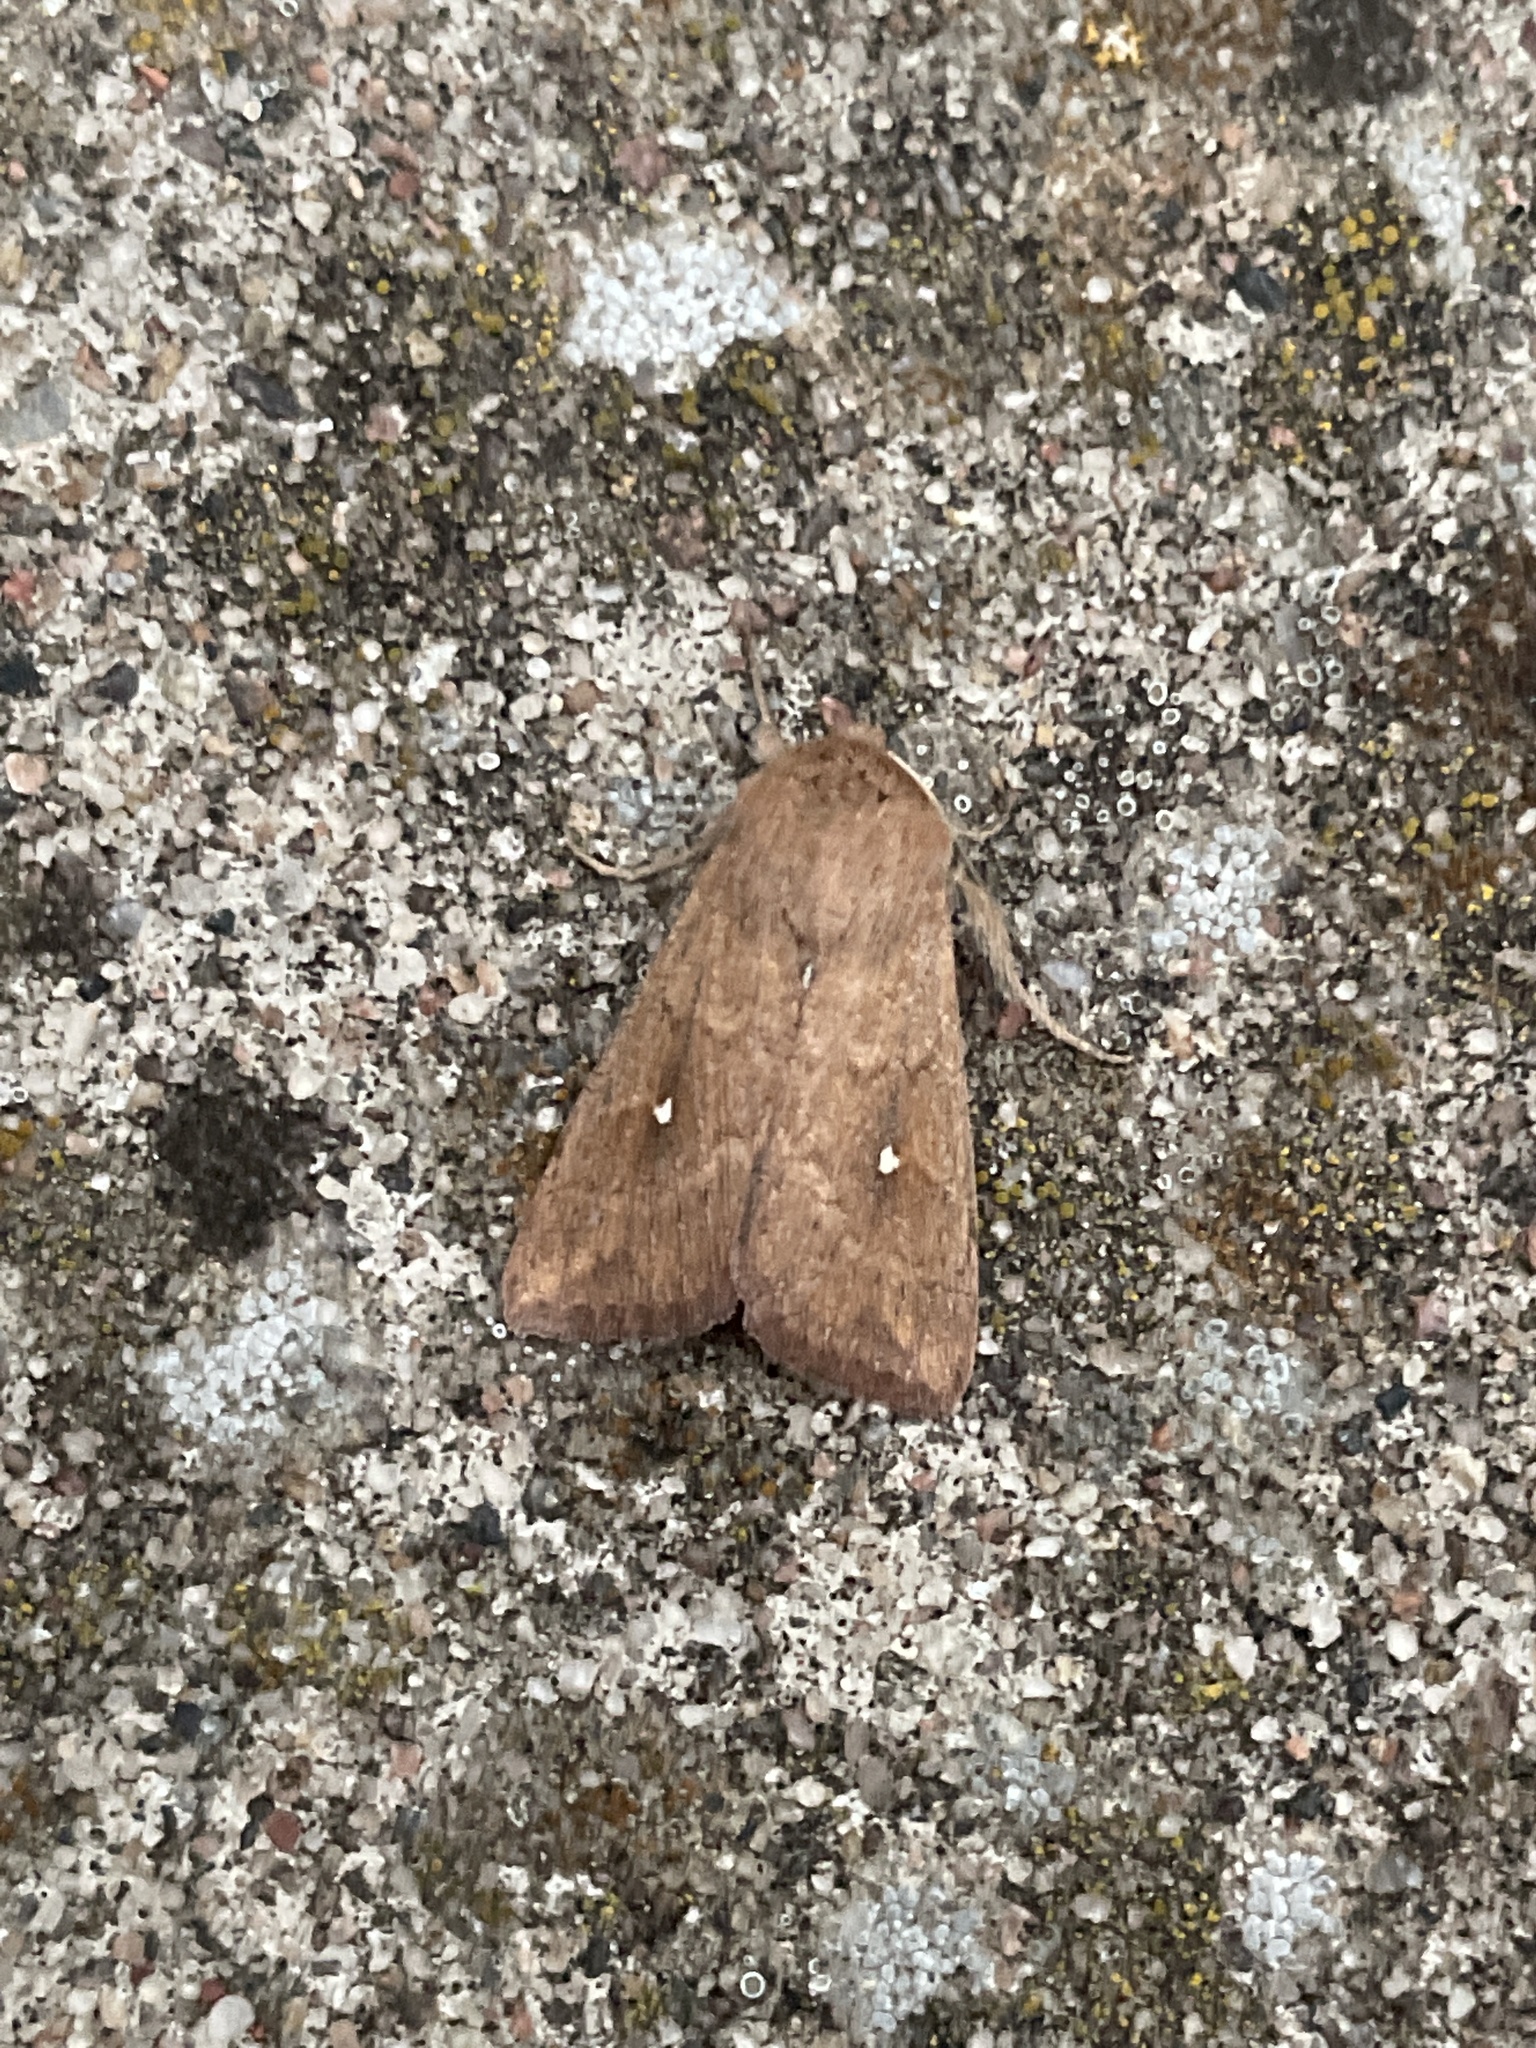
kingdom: Animalia
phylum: Arthropoda
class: Insecta
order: Lepidoptera
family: Noctuidae
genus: Mythimna
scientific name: Mythimna albipuncta
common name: White-point
